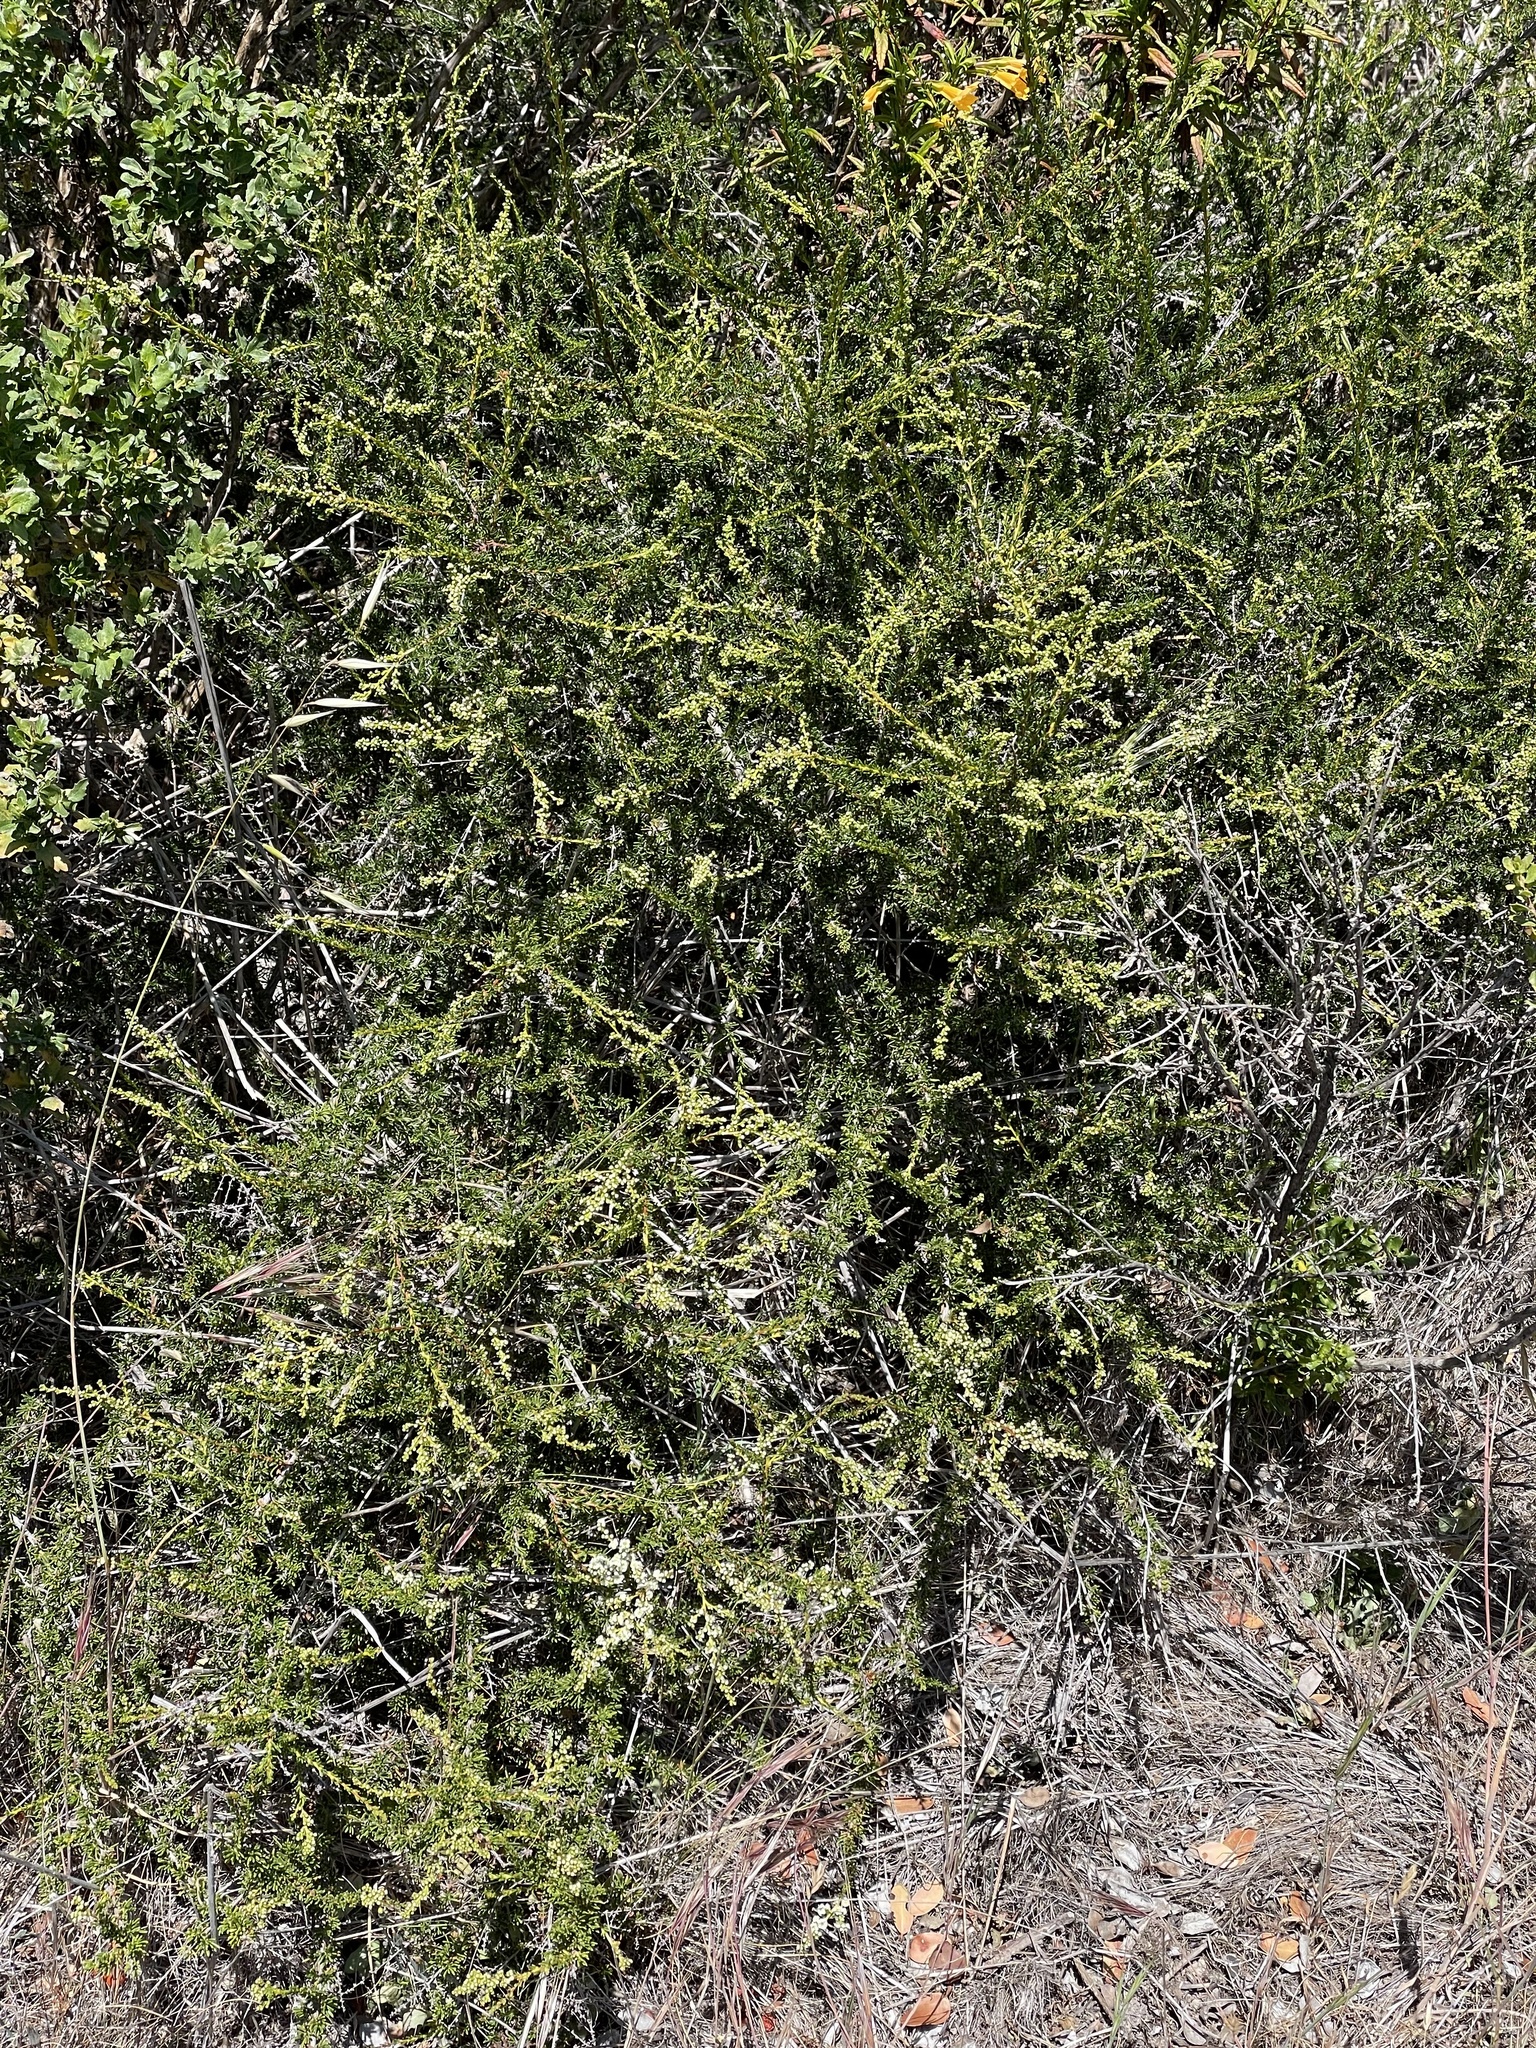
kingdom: Plantae
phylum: Tracheophyta
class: Magnoliopsida
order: Rosales
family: Rosaceae
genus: Adenostoma
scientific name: Adenostoma fasciculatum
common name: Chamise
